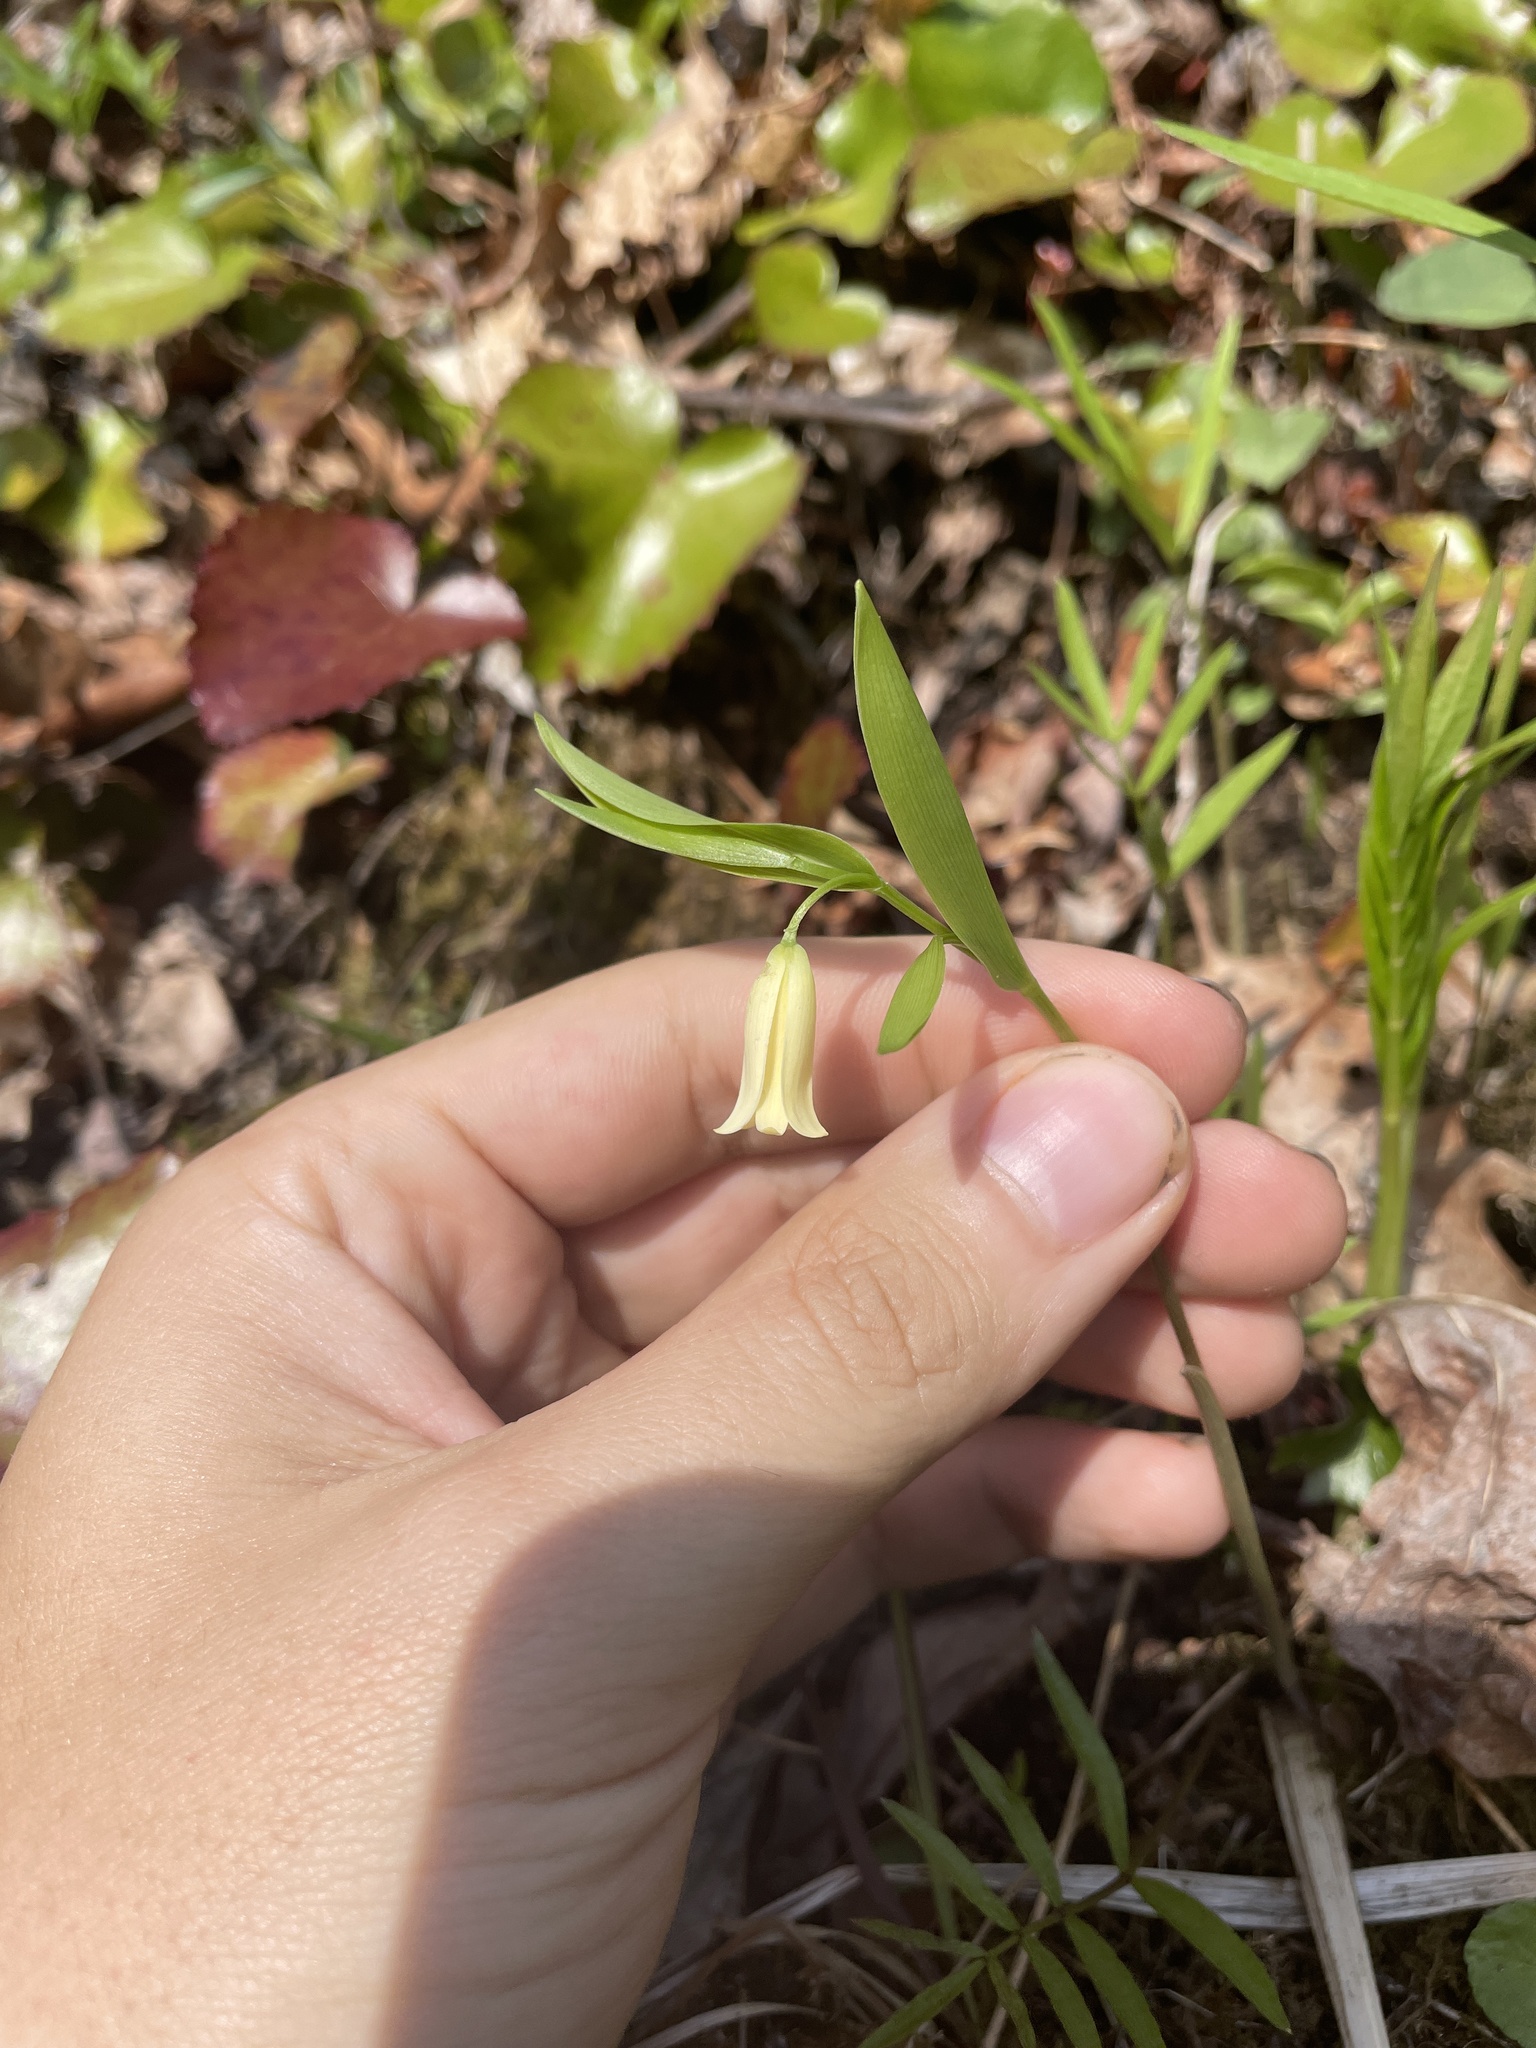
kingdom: Plantae
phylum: Tracheophyta
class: Liliopsida
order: Liliales
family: Colchicaceae
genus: Uvularia
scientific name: Uvularia puberula
